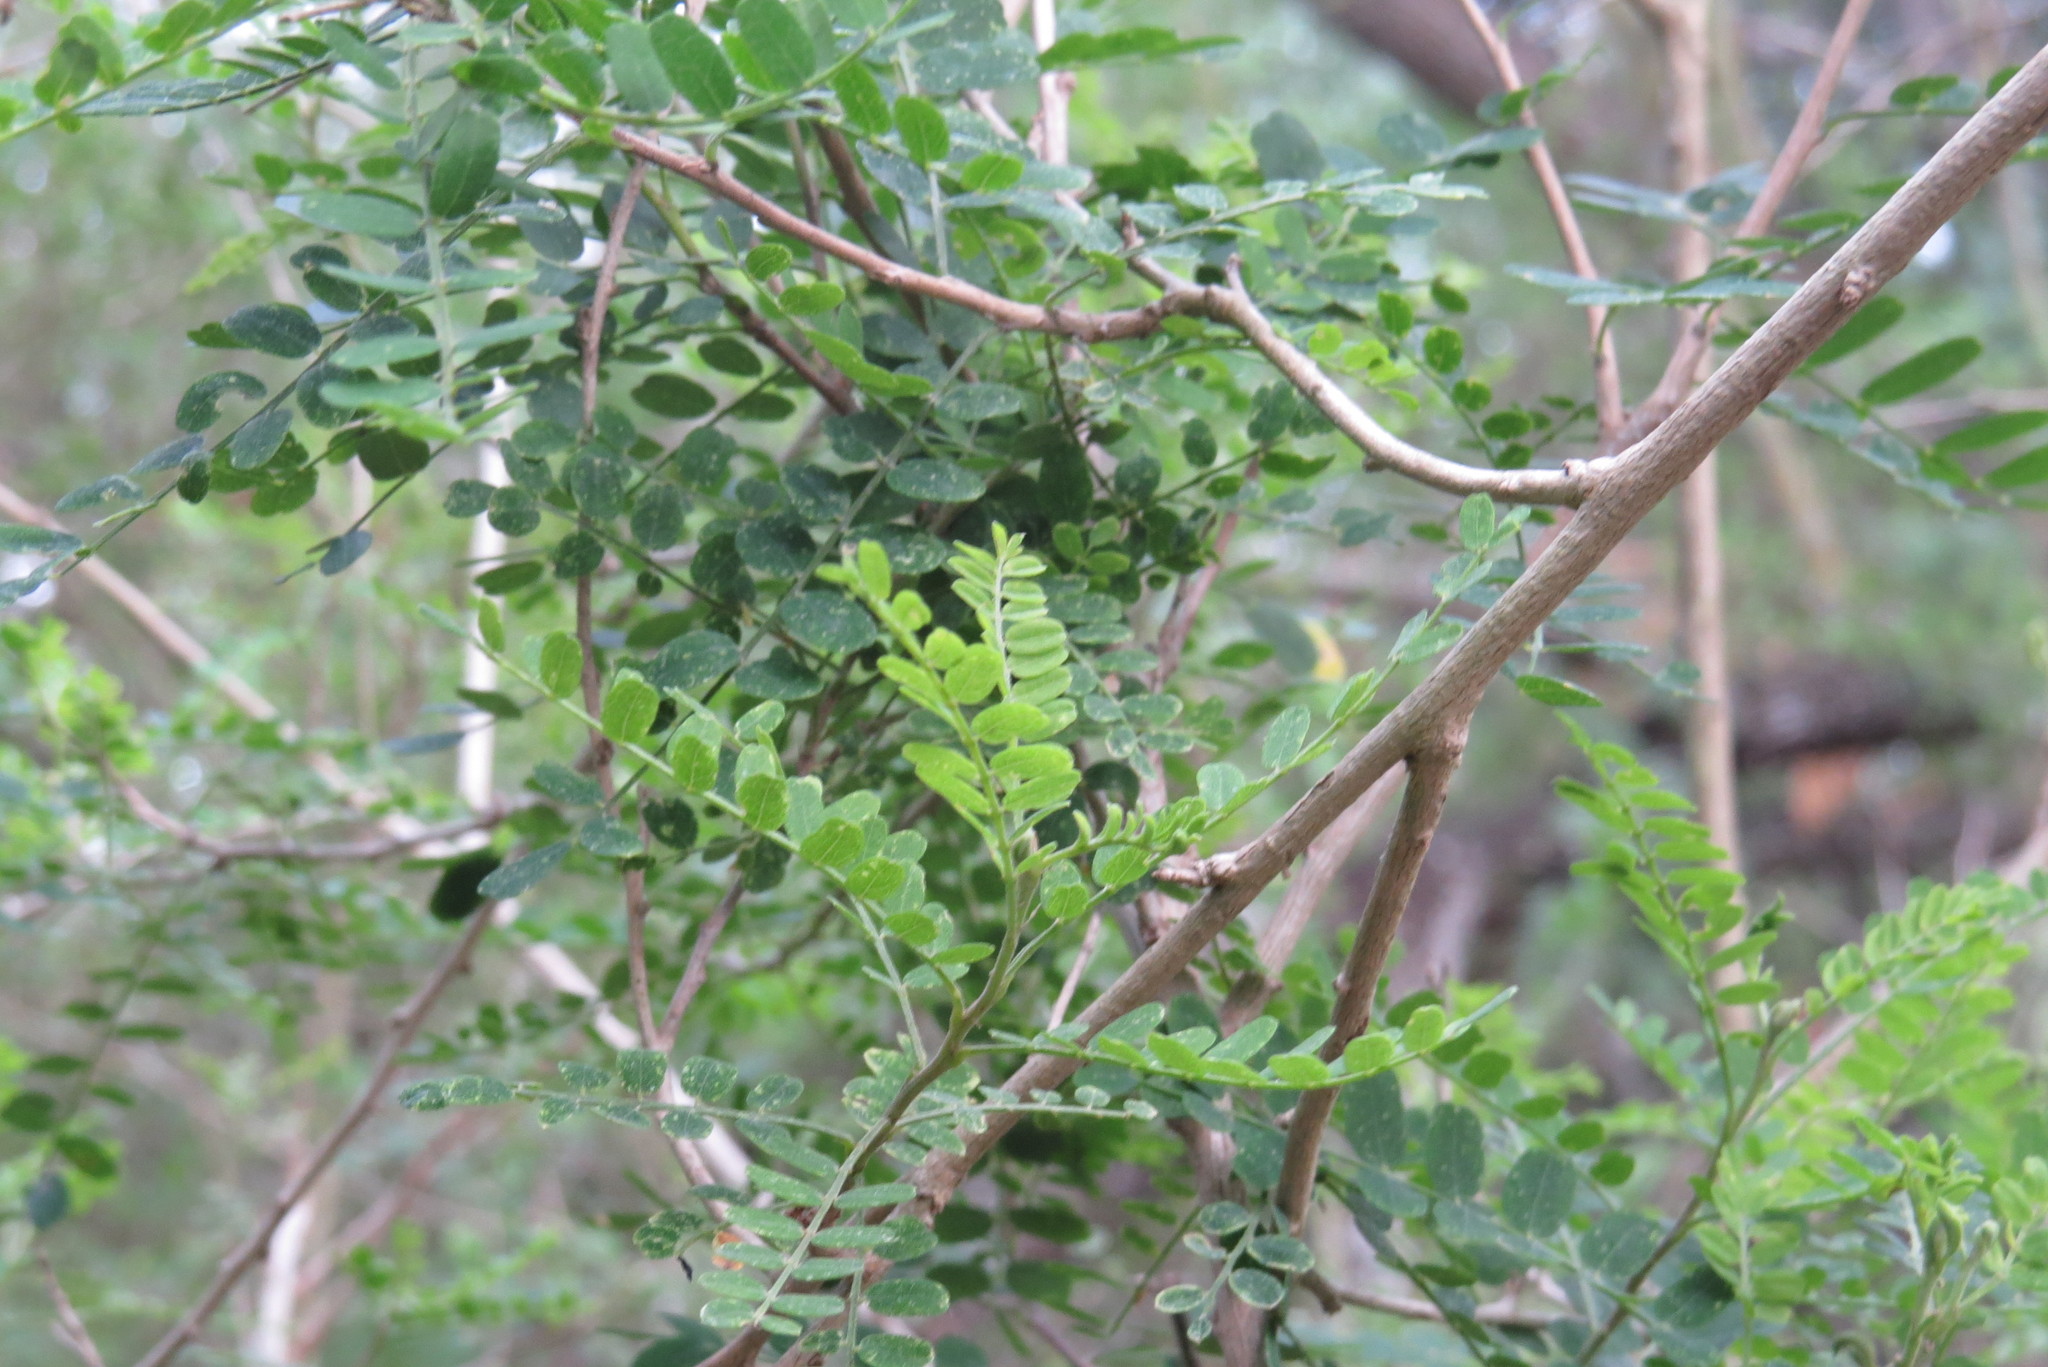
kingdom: Plantae
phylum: Tracheophyta
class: Magnoliopsida
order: Fabales
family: Fabaceae
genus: Eysenhardtia
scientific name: Eysenhardtia texana
